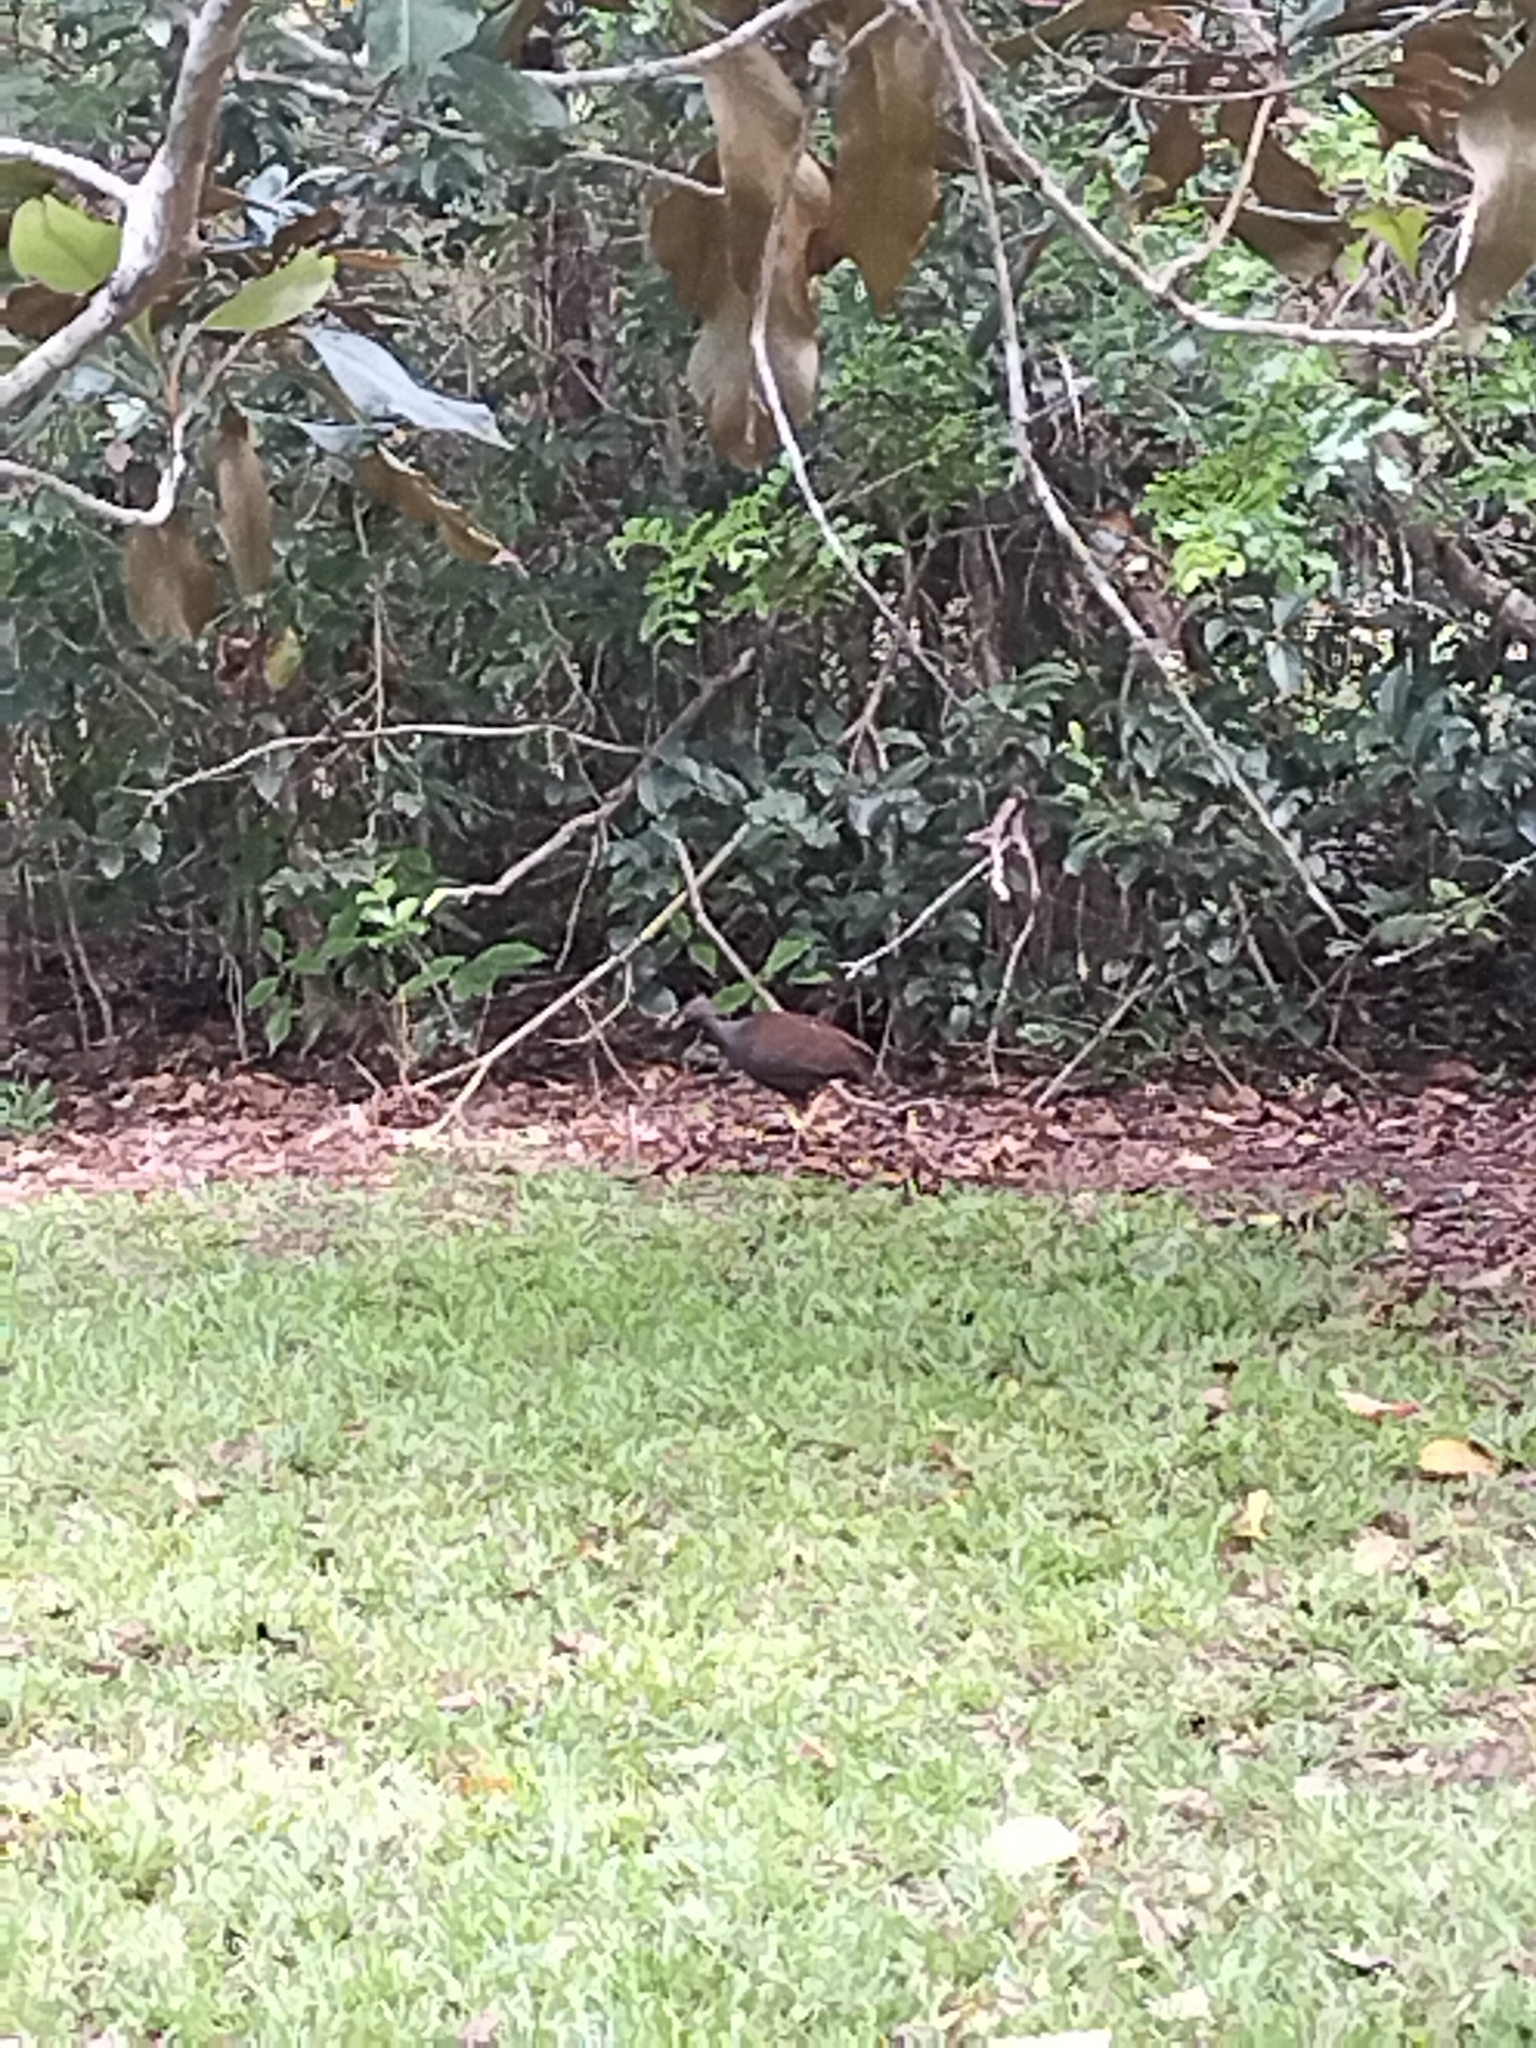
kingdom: Animalia
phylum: Chordata
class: Aves
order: Galliformes
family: Megapodiidae
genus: Megapodius
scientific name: Megapodius reinwardt
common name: Orange-footed scrubfowl
